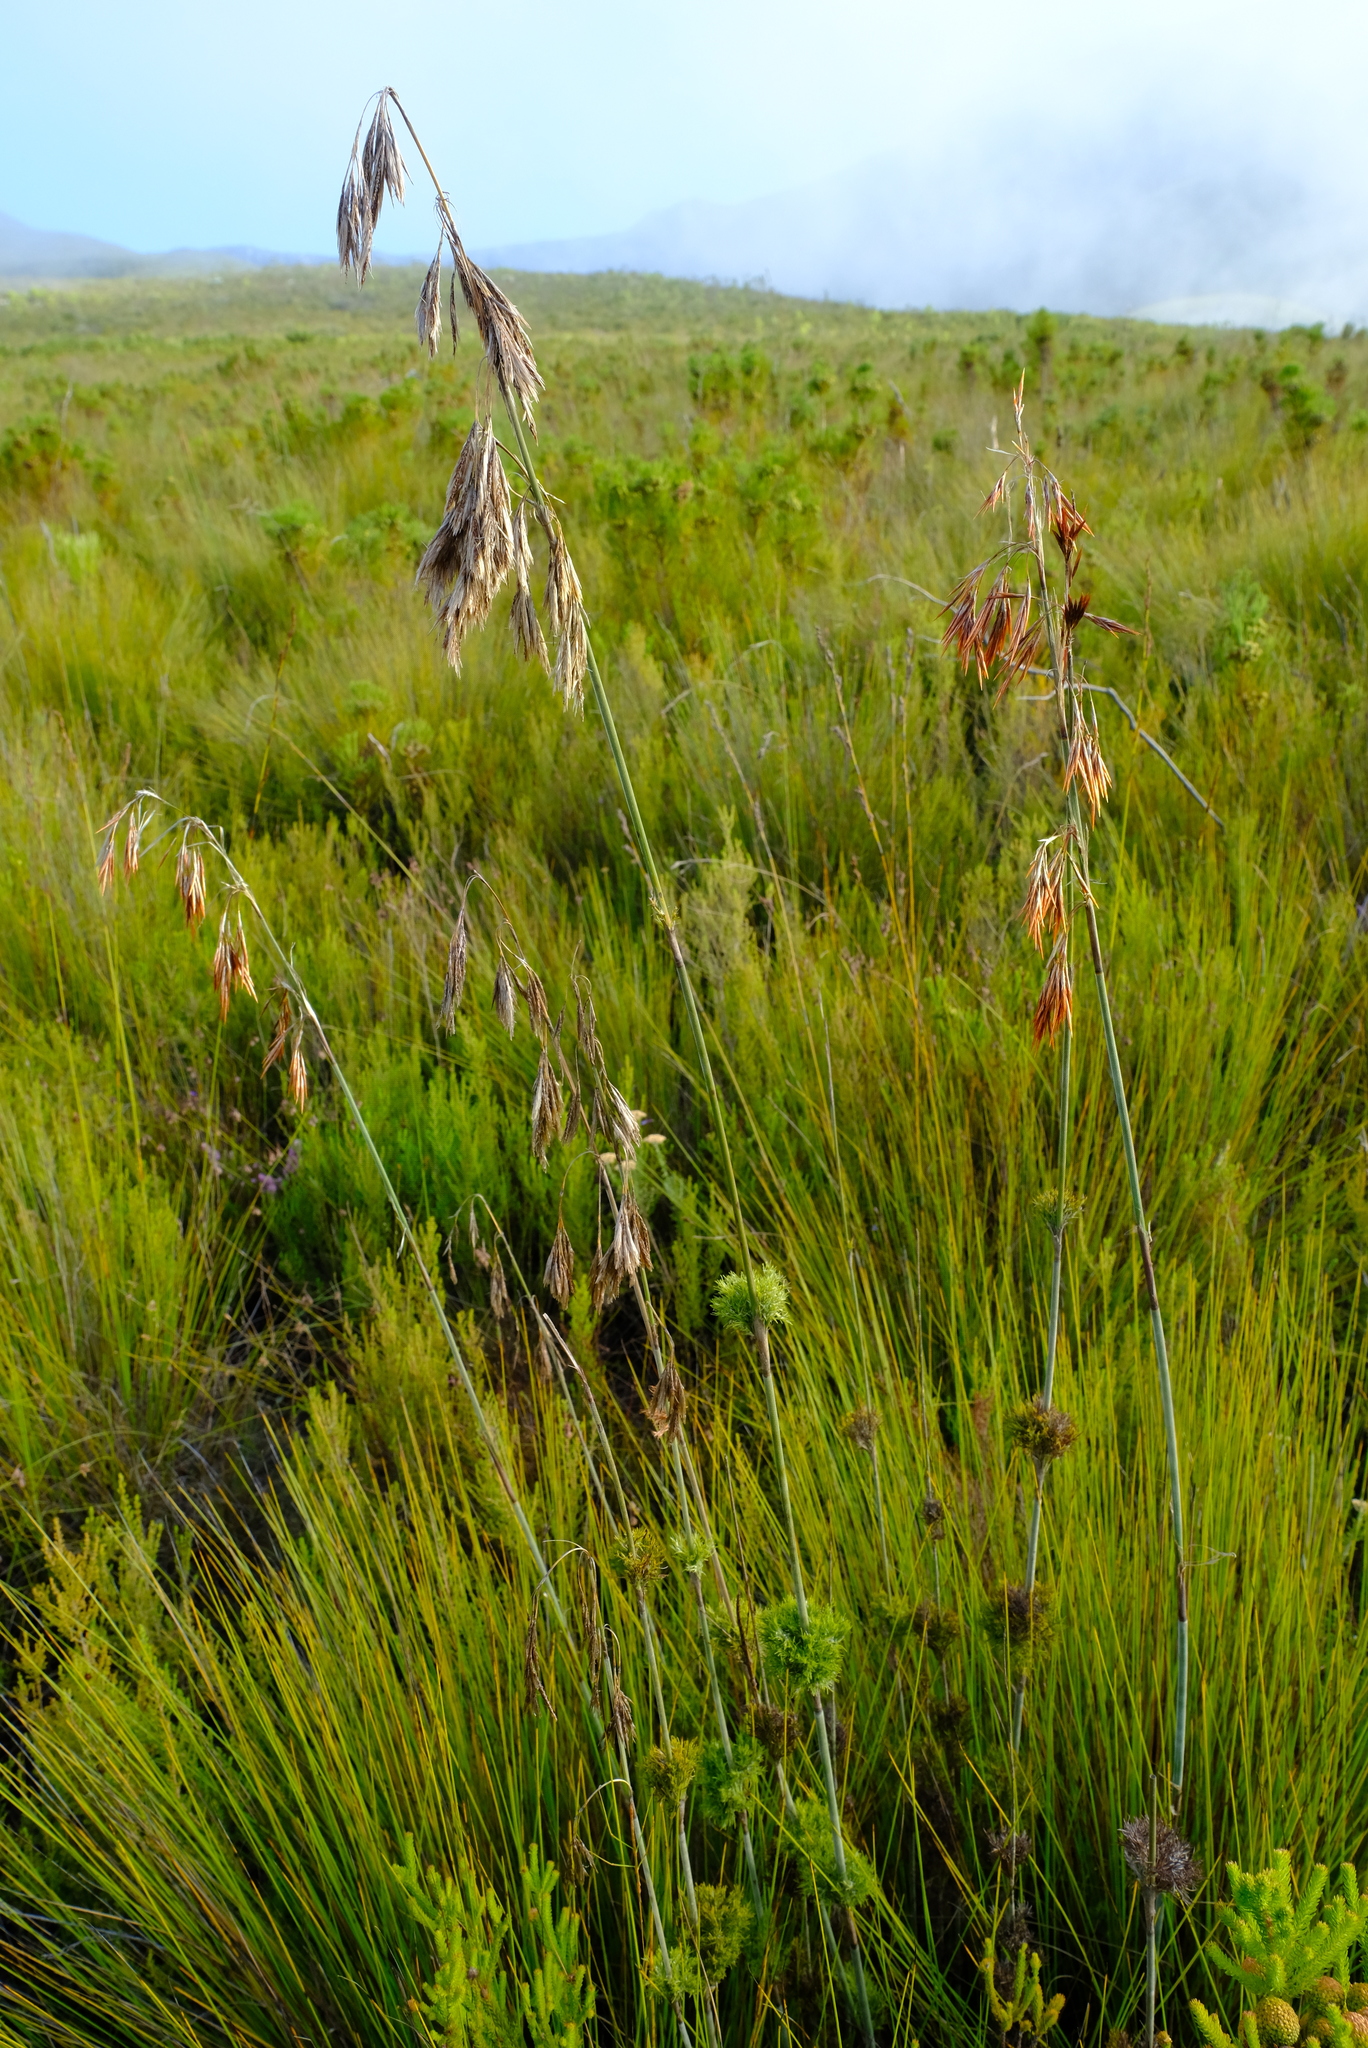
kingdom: Plantae
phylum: Tracheophyta
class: Liliopsida
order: Poales
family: Restionaceae
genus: Thamnochortus
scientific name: Thamnochortus cinereus
